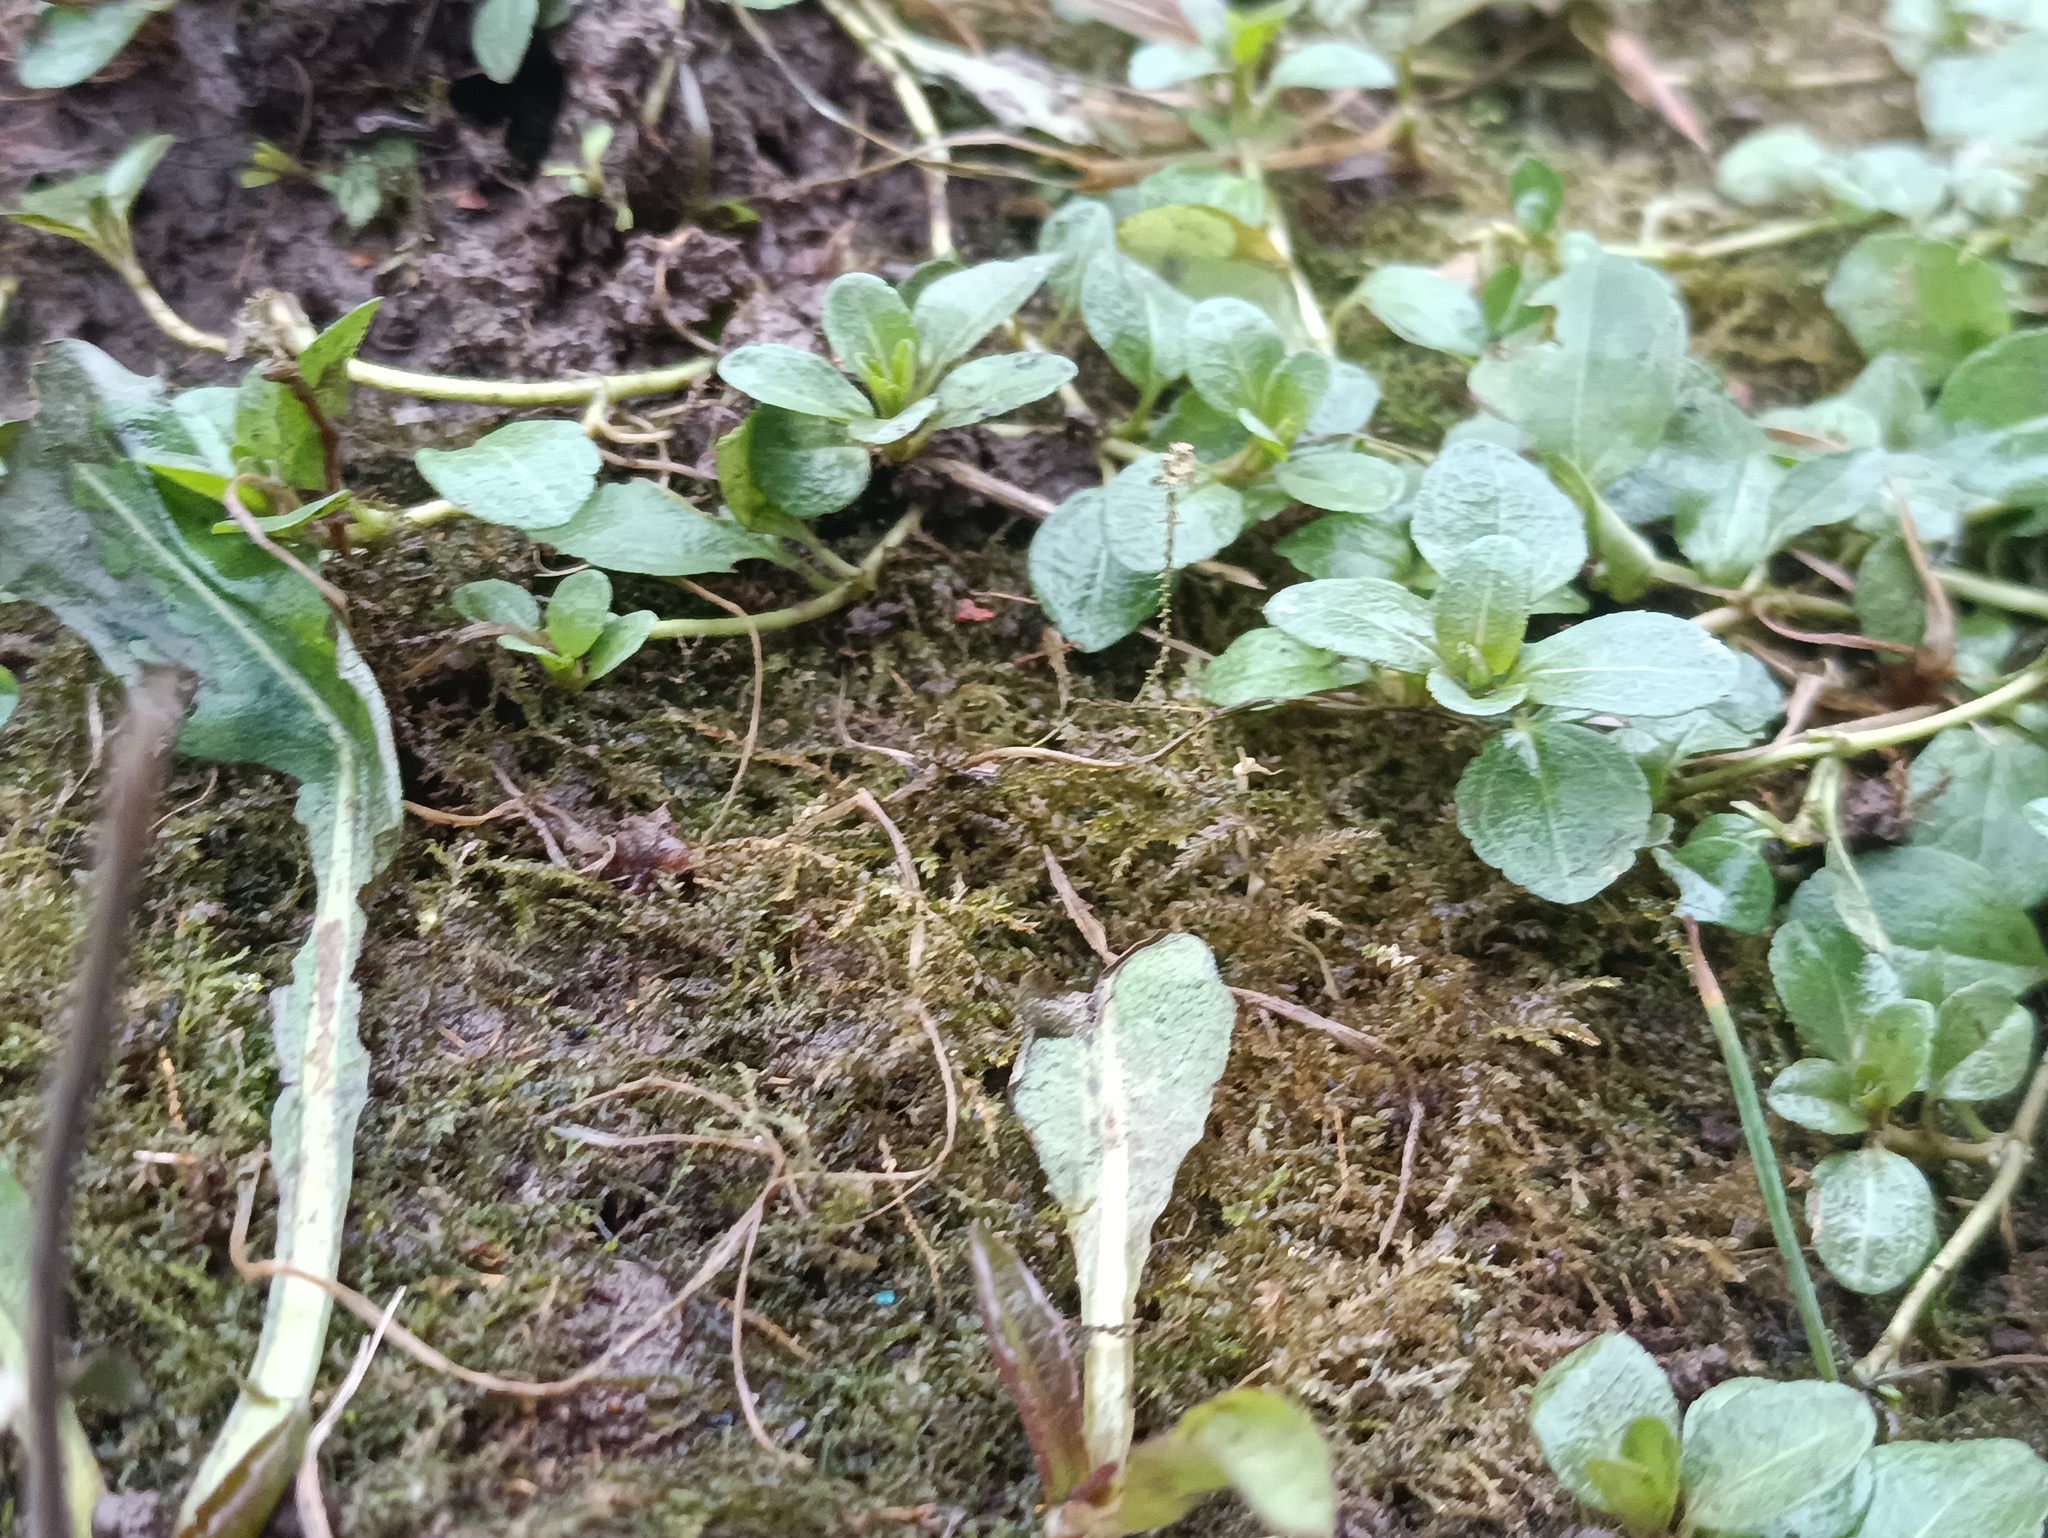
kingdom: Plantae
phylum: Tracheophyta
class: Magnoliopsida
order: Lamiales
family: Plantaginaceae
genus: Veronica
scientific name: Veronica serpyllifolia
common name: Thyme-leaved speedwell
